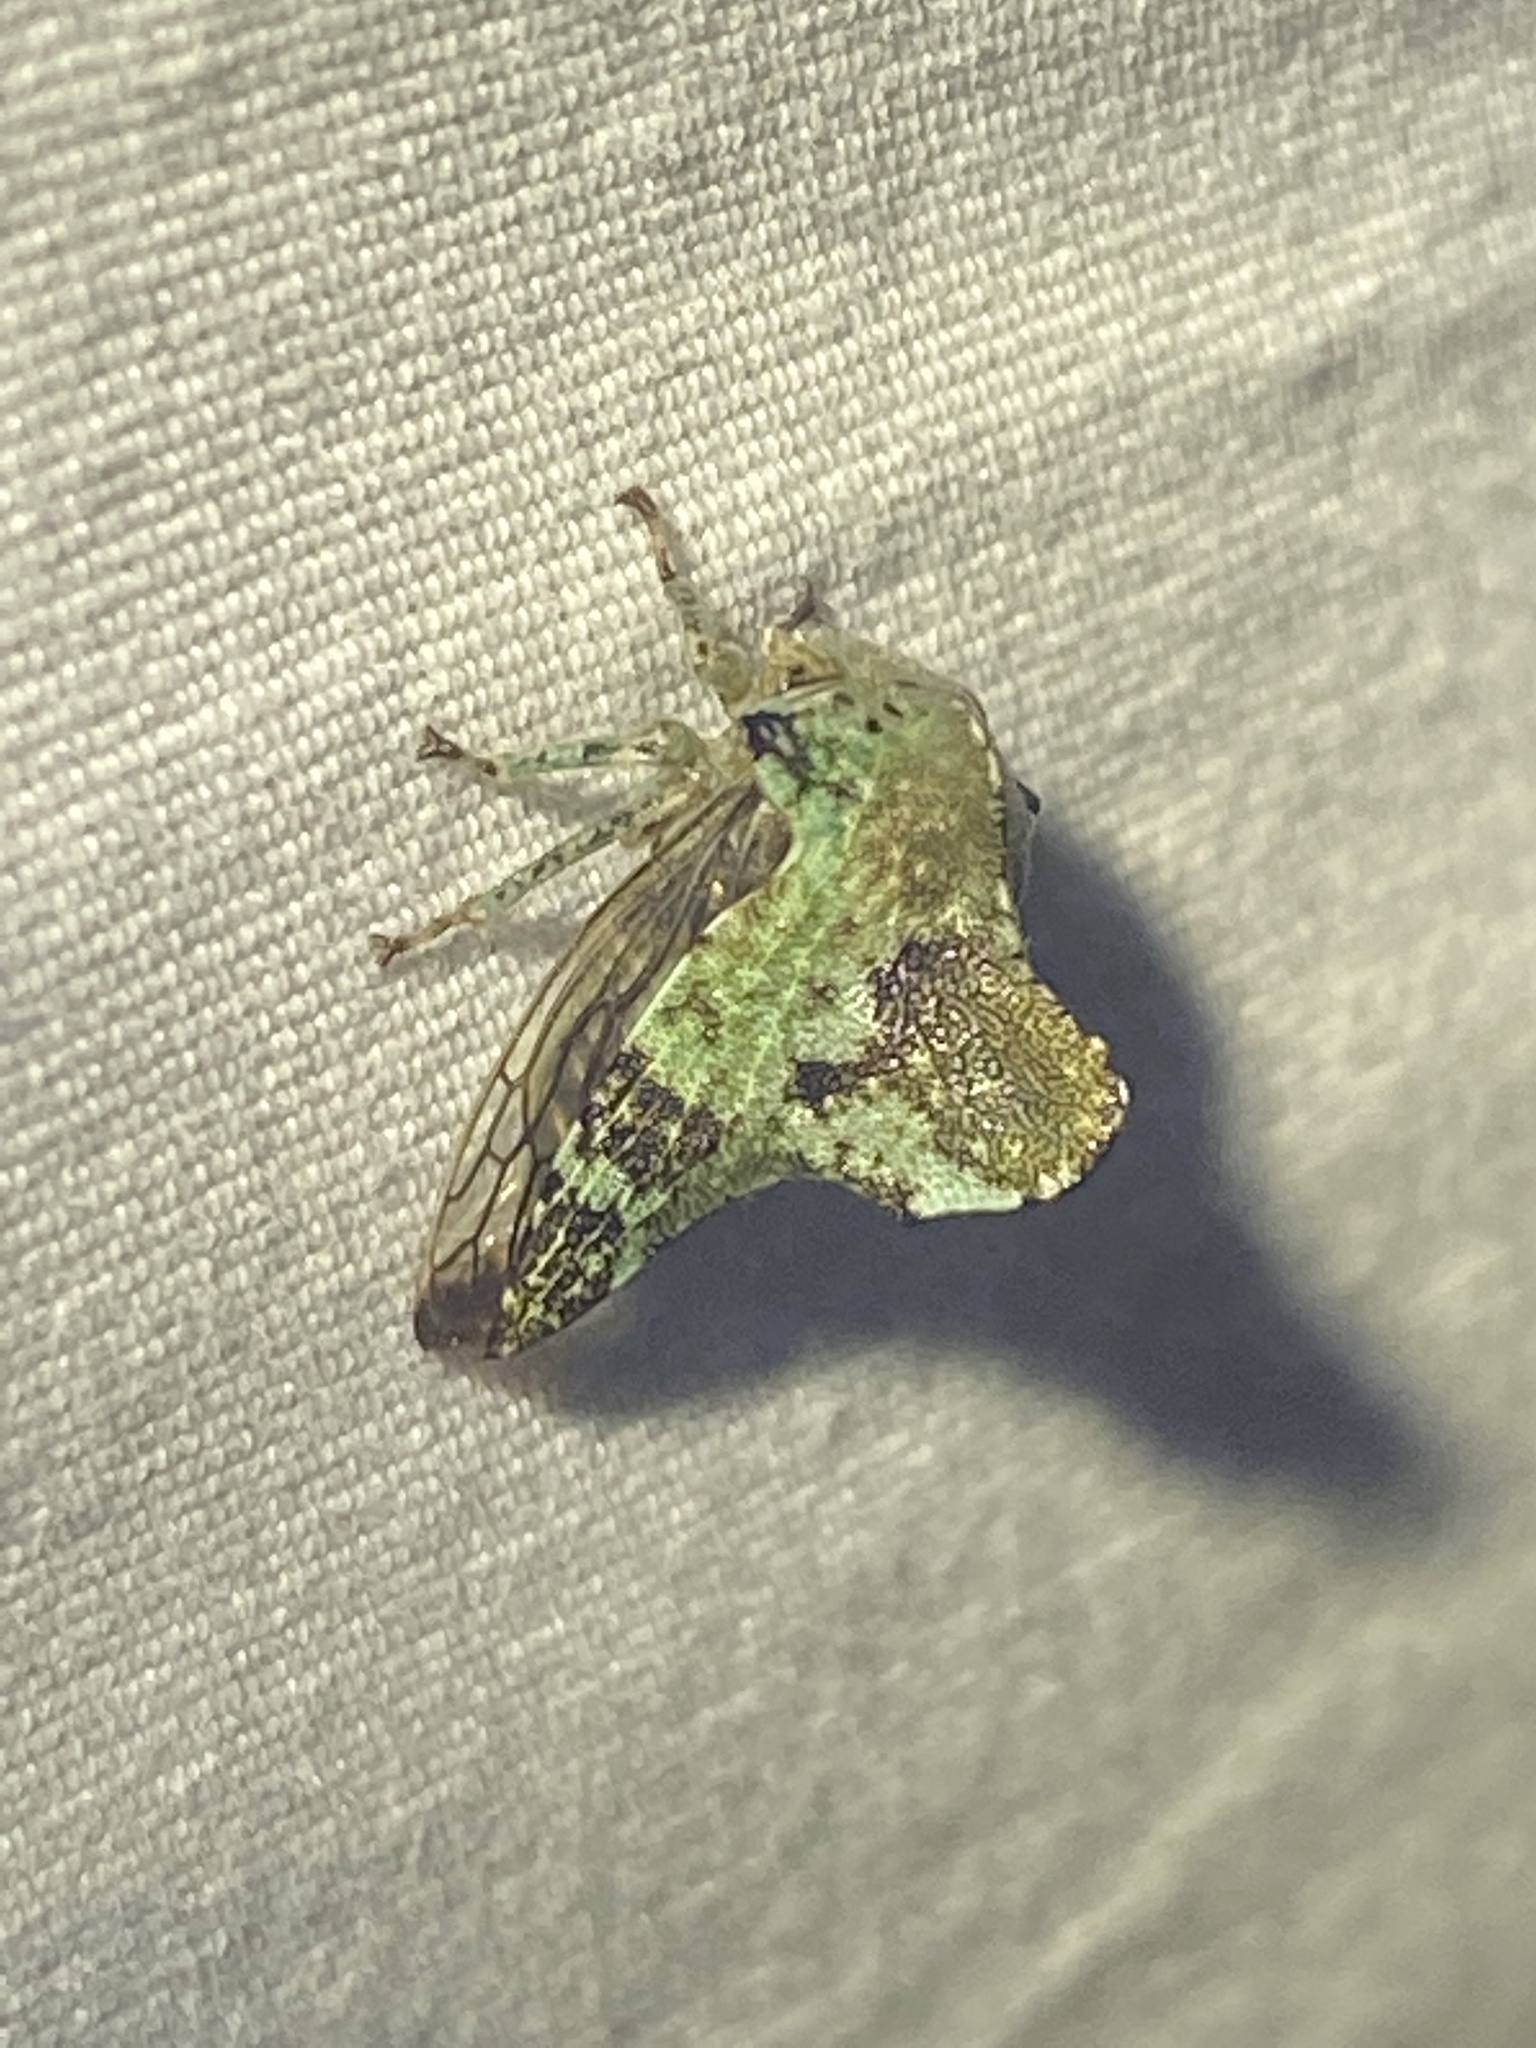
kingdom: Animalia
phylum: Arthropoda
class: Insecta
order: Hemiptera
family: Membracidae
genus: Telamona
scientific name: Telamona concava
